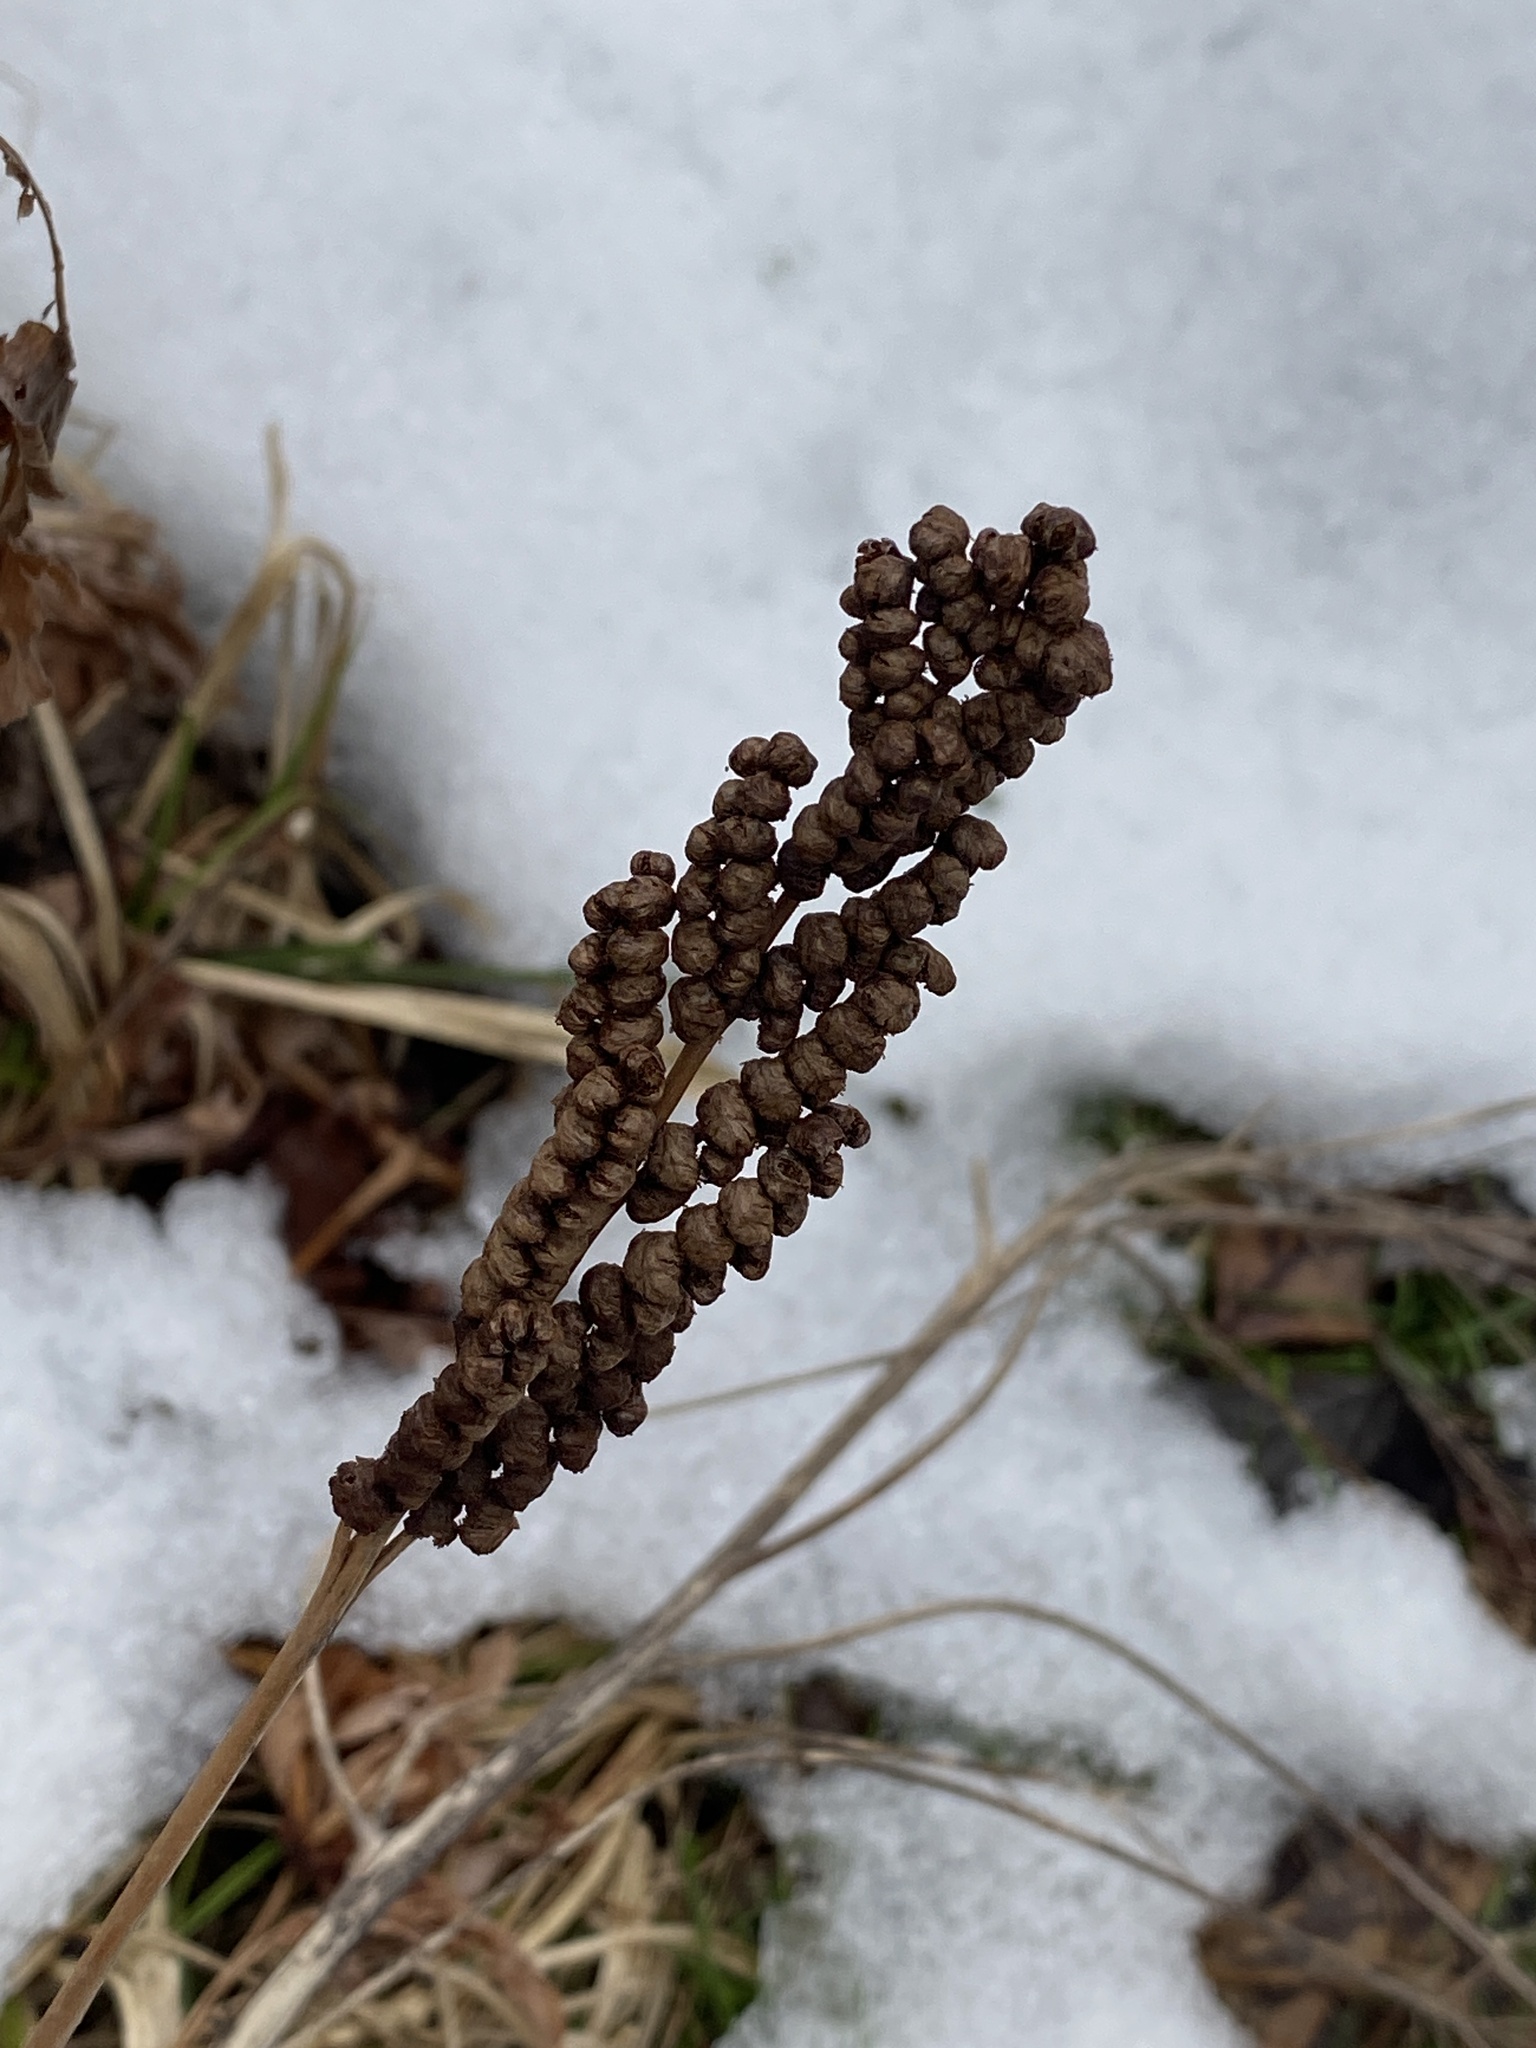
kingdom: Plantae
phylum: Tracheophyta
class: Polypodiopsida
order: Polypodiales
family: Onocleaceae
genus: Onoclea
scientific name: Onoclea sensibilis
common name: Sensitive fern
